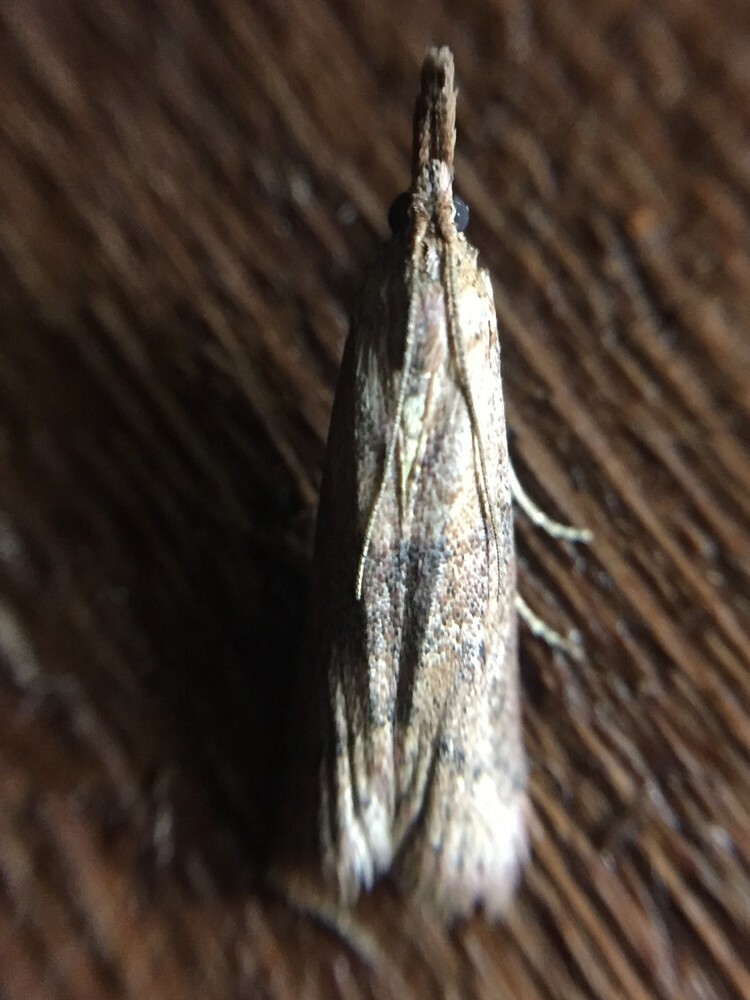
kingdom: Animalia
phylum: Arthropoda
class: Insecta
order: Lepidoptera
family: Pyralidae
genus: Macrorrhinia
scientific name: Macrorrhinia endonephele
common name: Alligator weed stemborer moth
